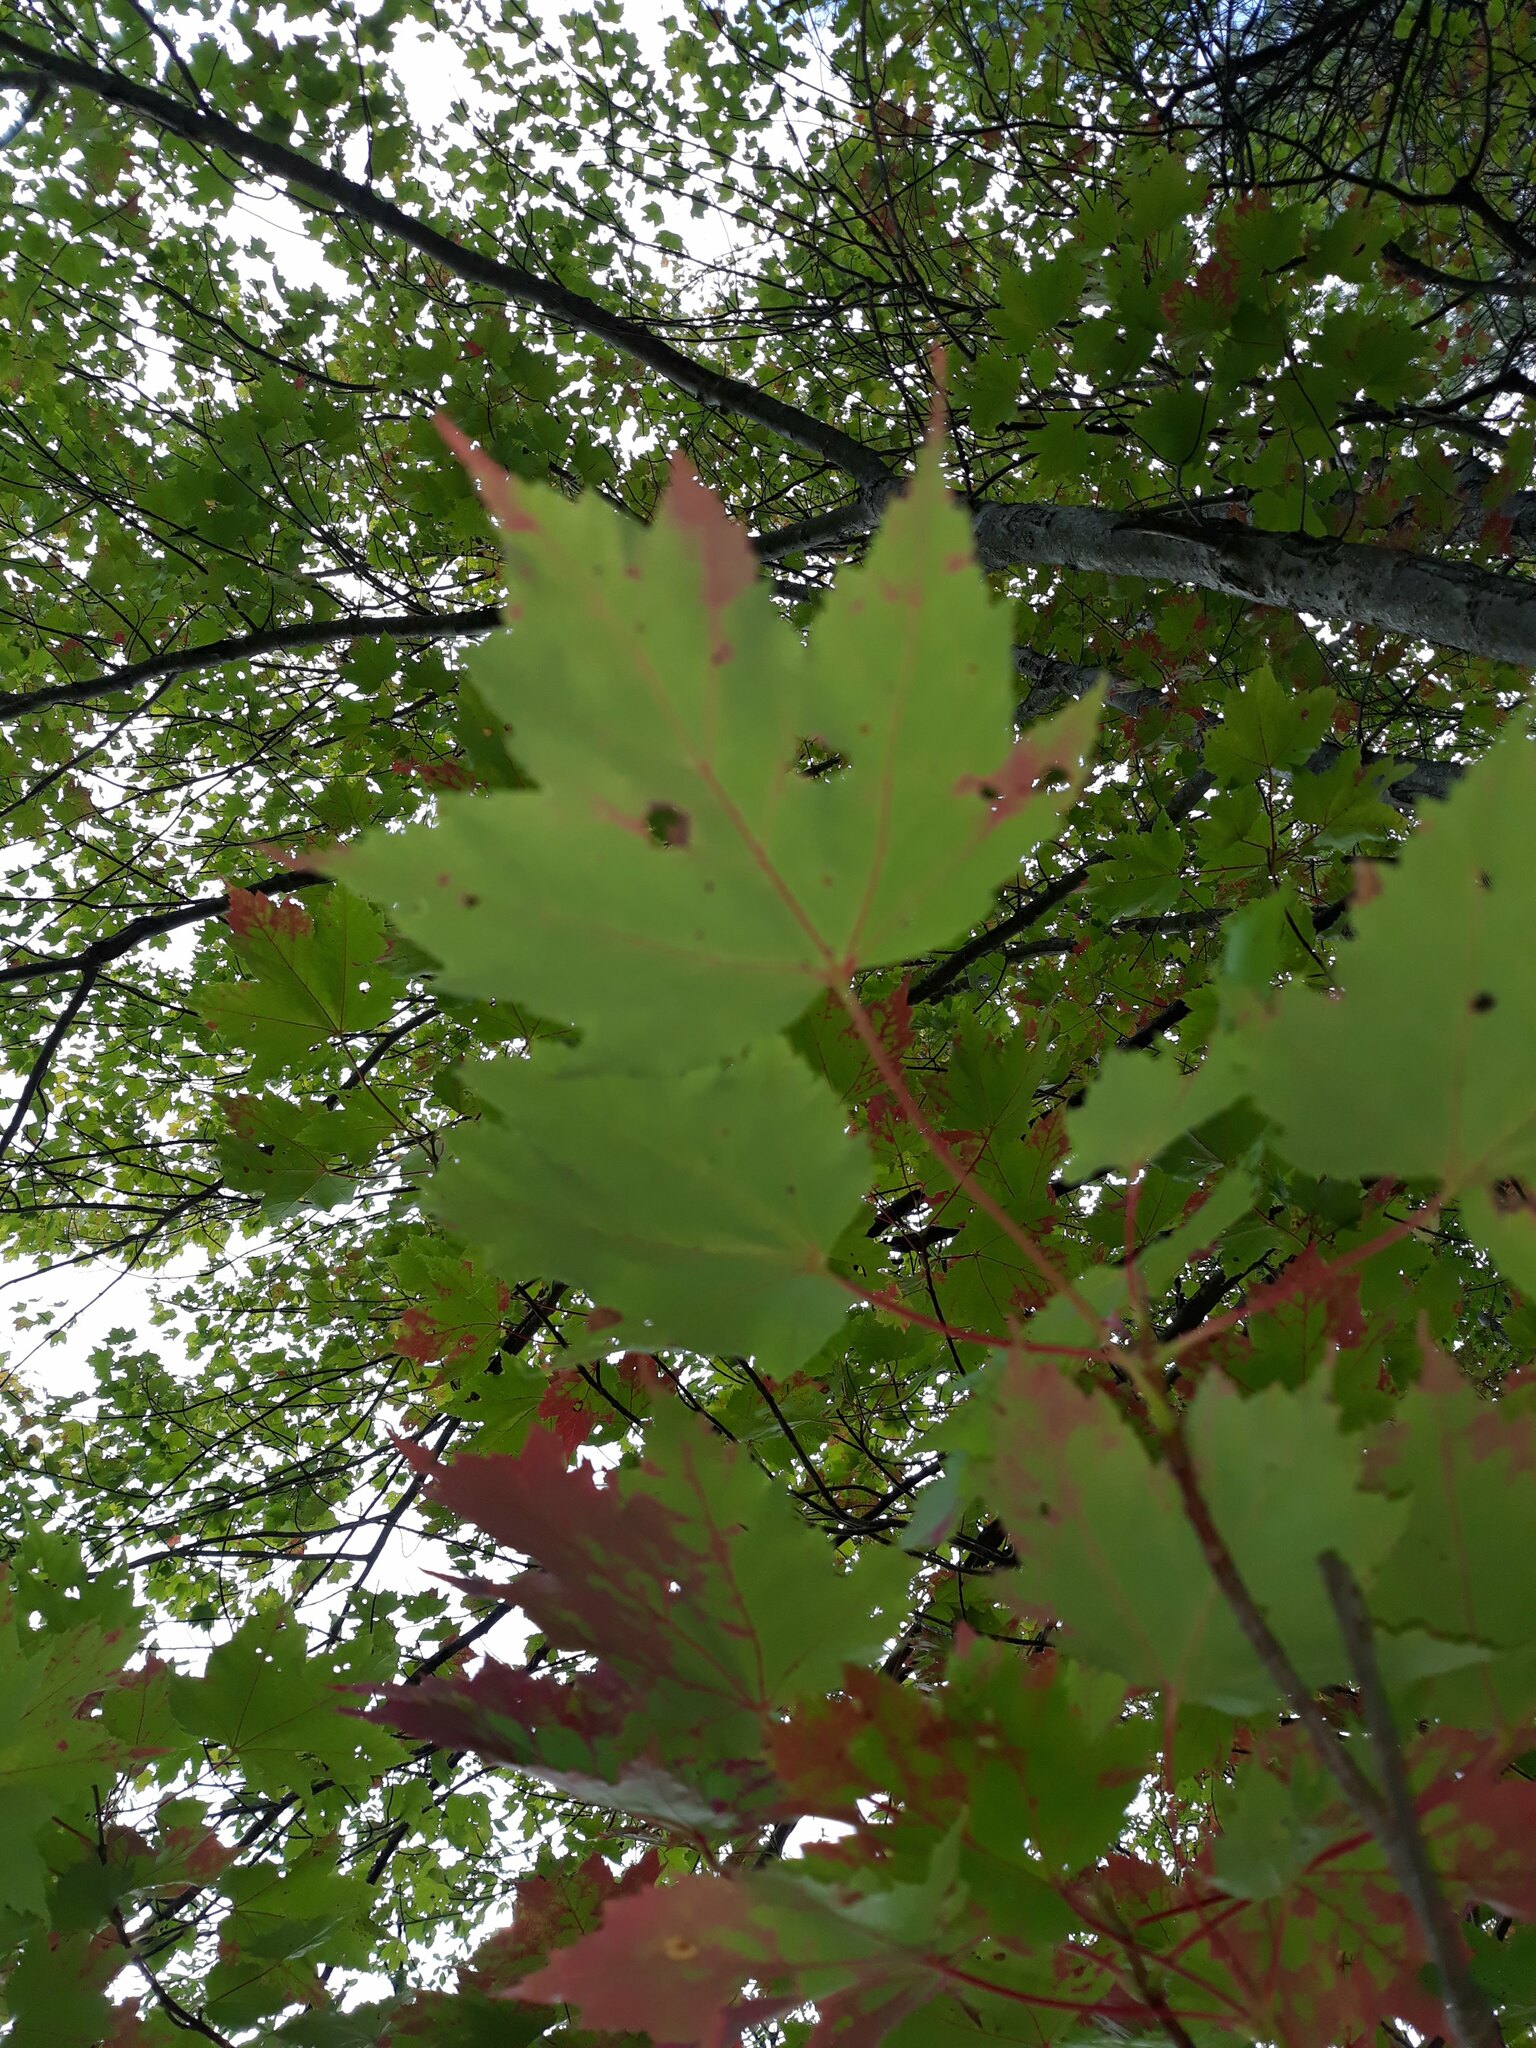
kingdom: Plantae
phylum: Tracheophyta
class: Magnoliopsida
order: Sapindales
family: Sapindaceae
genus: Acer
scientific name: Acer saccharum
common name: Sugar maple
